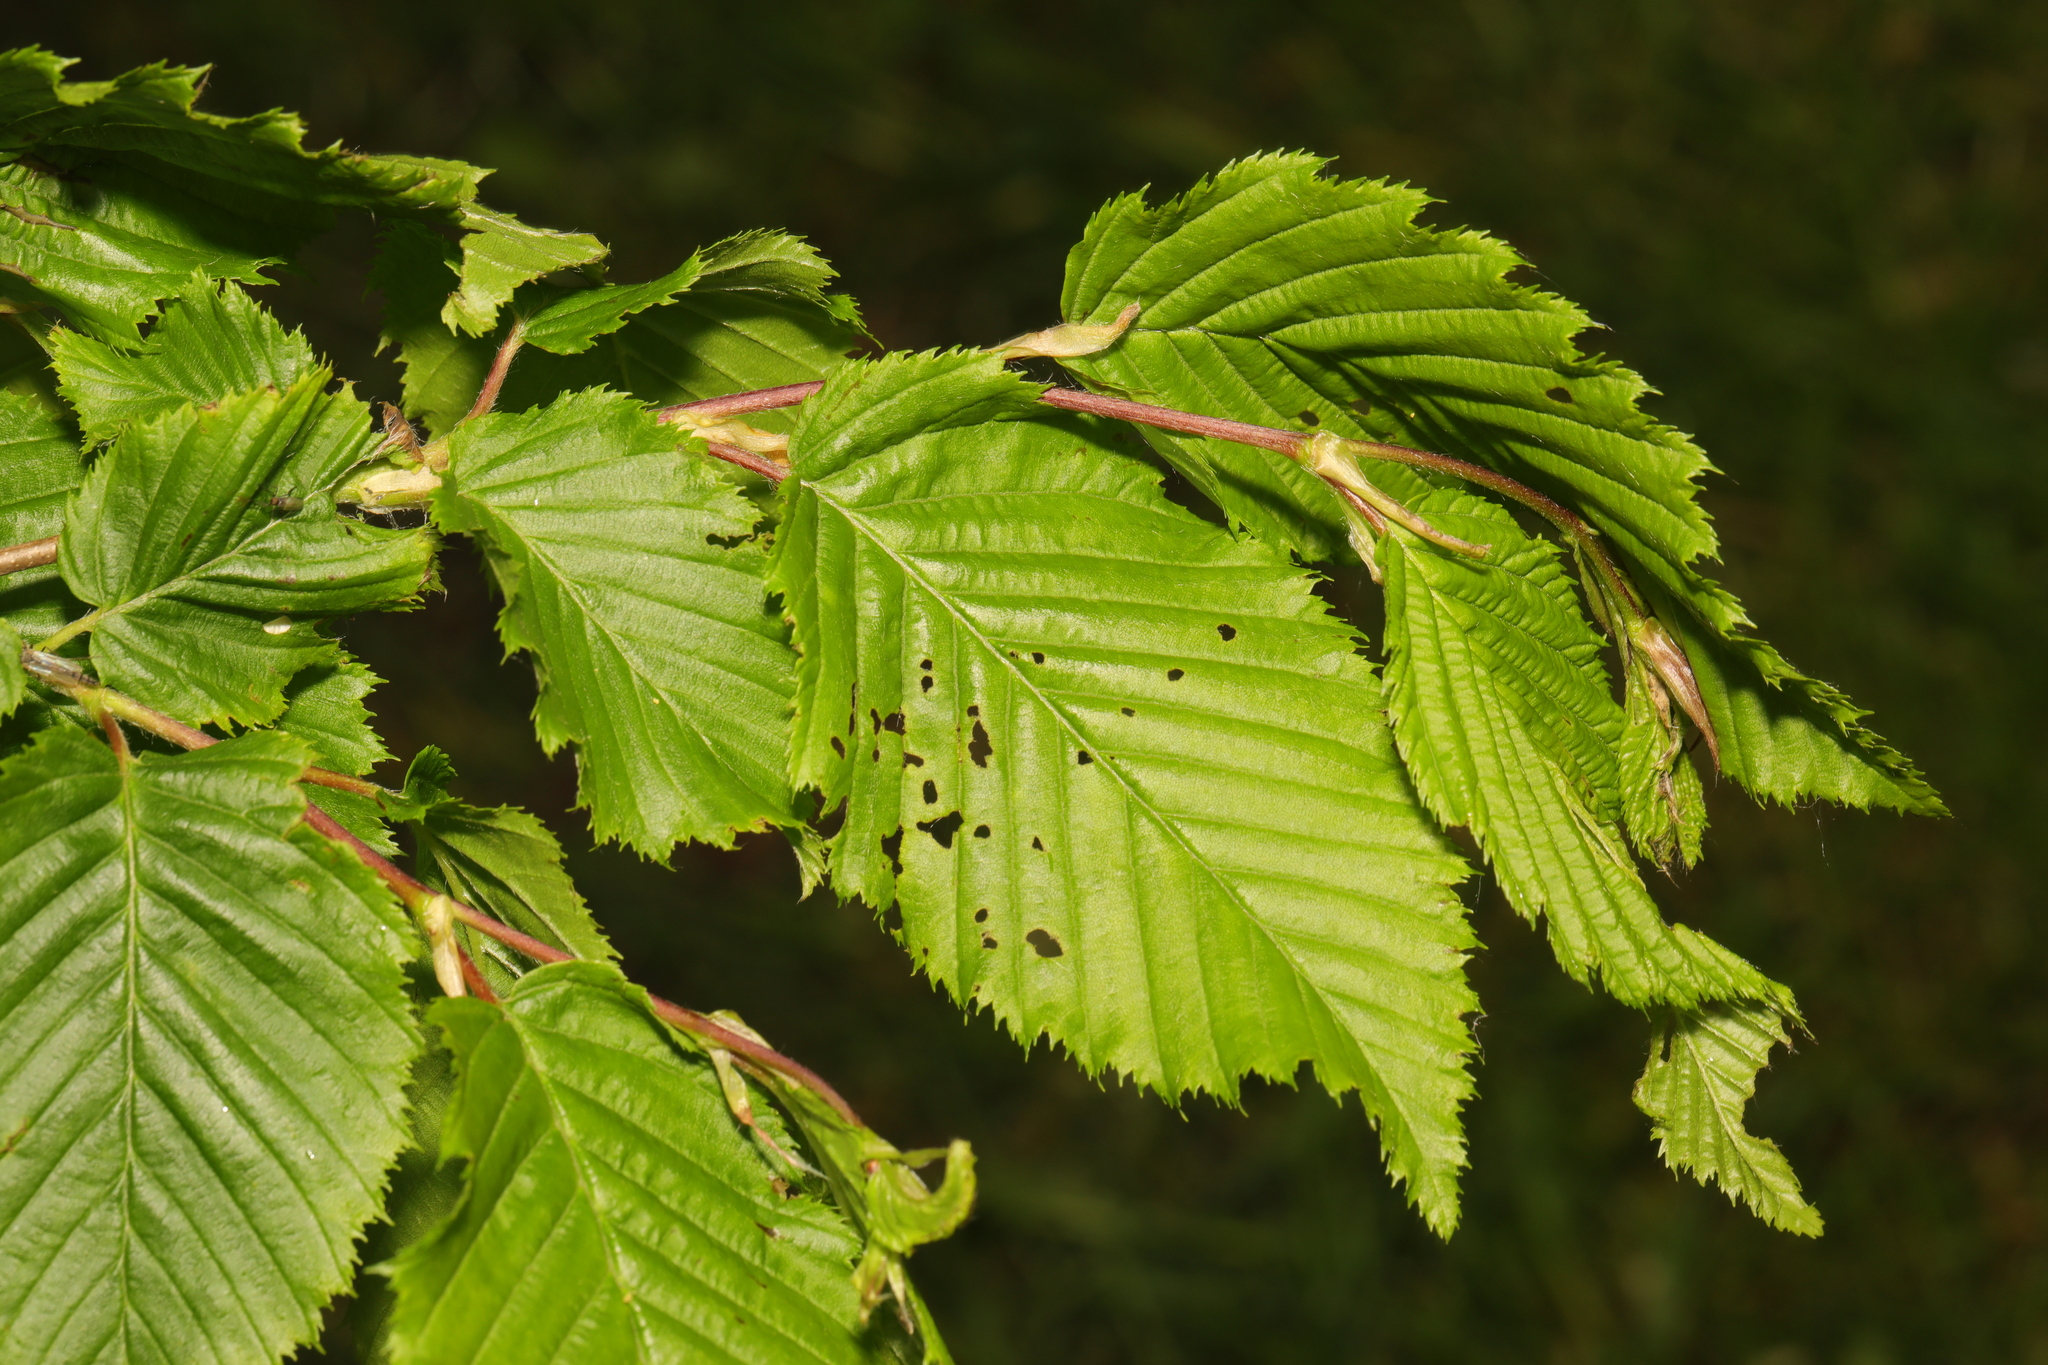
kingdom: Plantae
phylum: Tracheophyta
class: Magnoliopsida
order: Fagales
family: Betulaceae
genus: Carpinus
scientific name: Carpinus betulus
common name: Hornbeam
